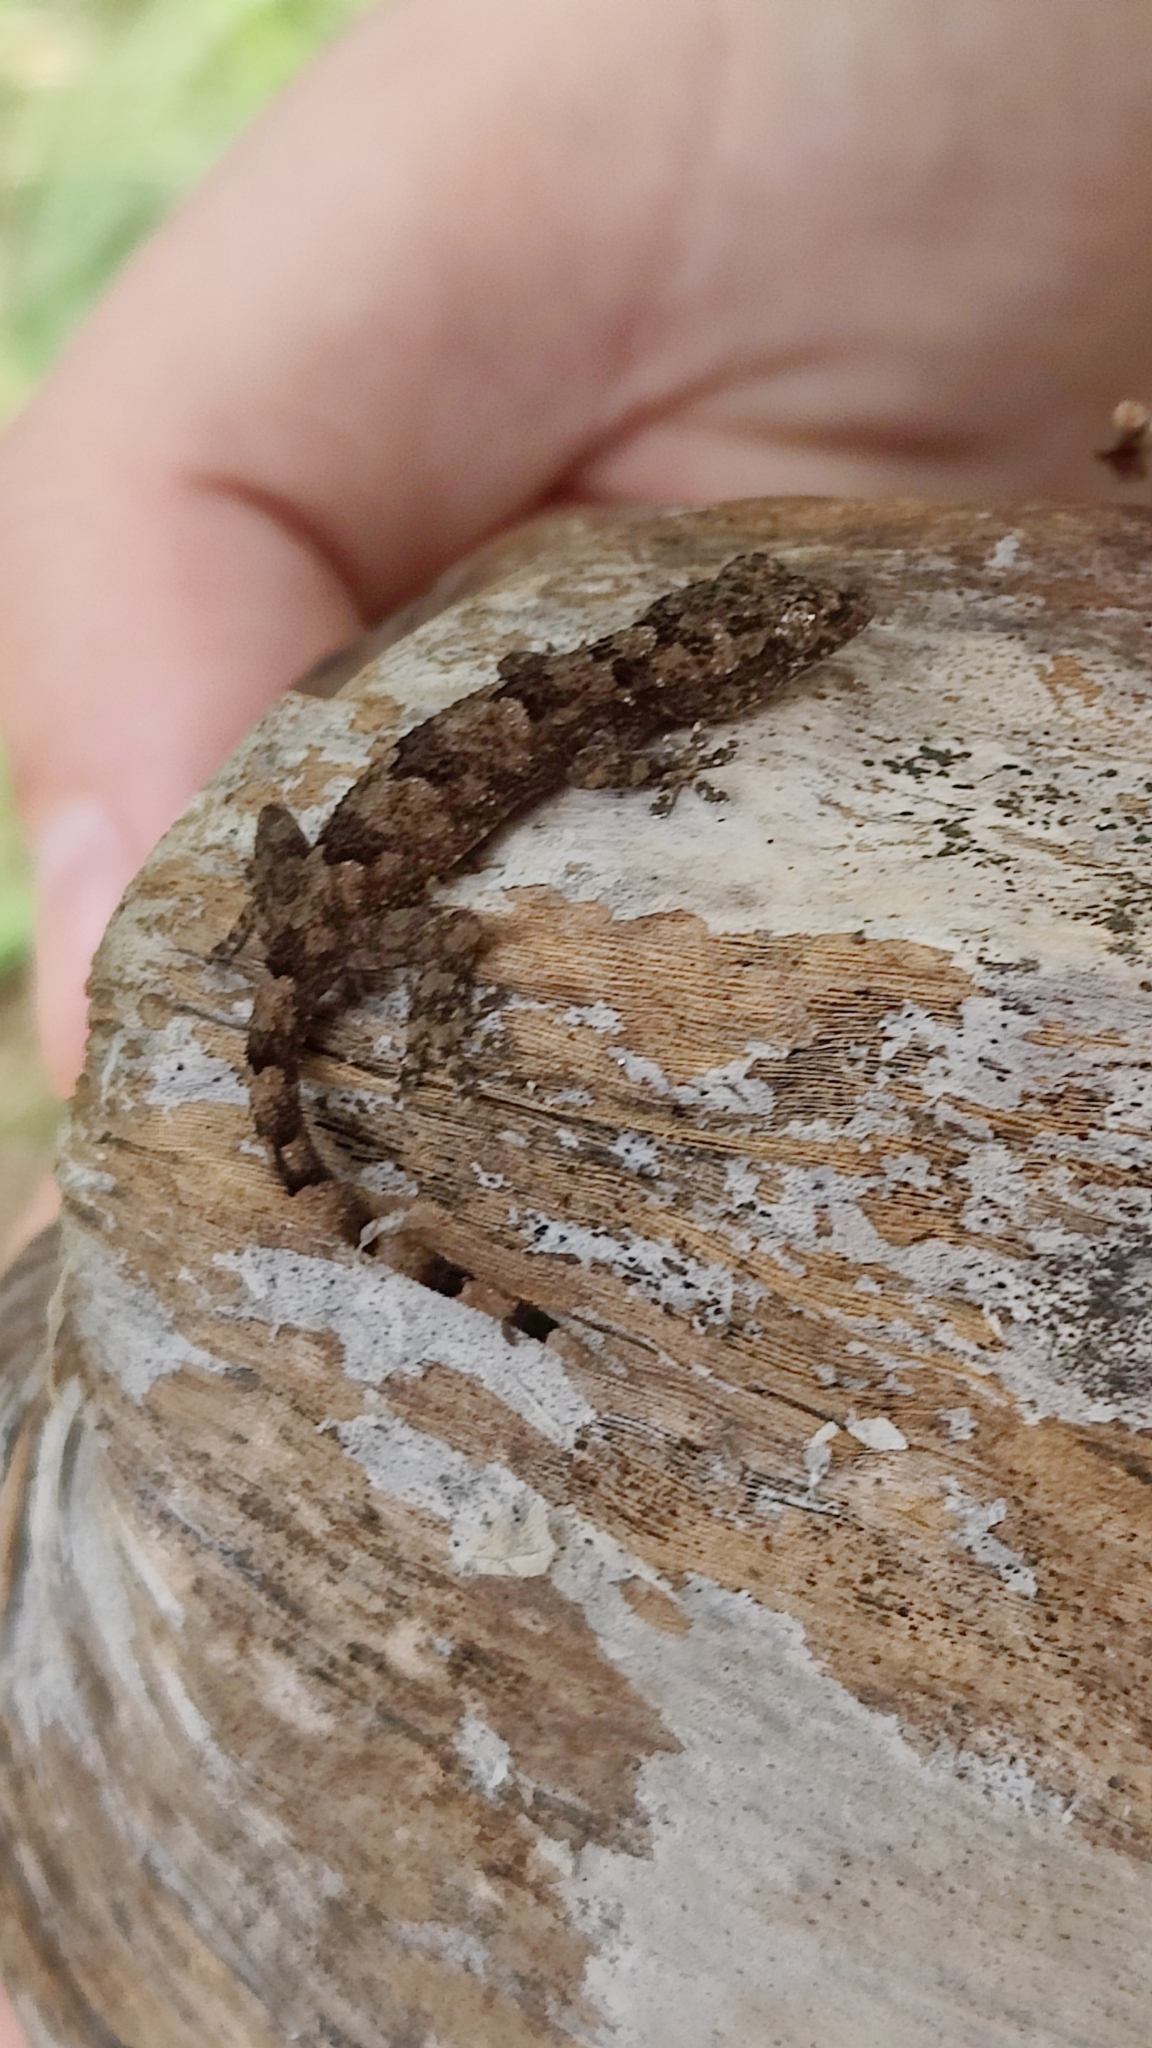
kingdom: Animalia
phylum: Chordata
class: Squamata
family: Gekkonidae
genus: Hemidactylus
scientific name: Hemidactylus mabouia
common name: House gecko
